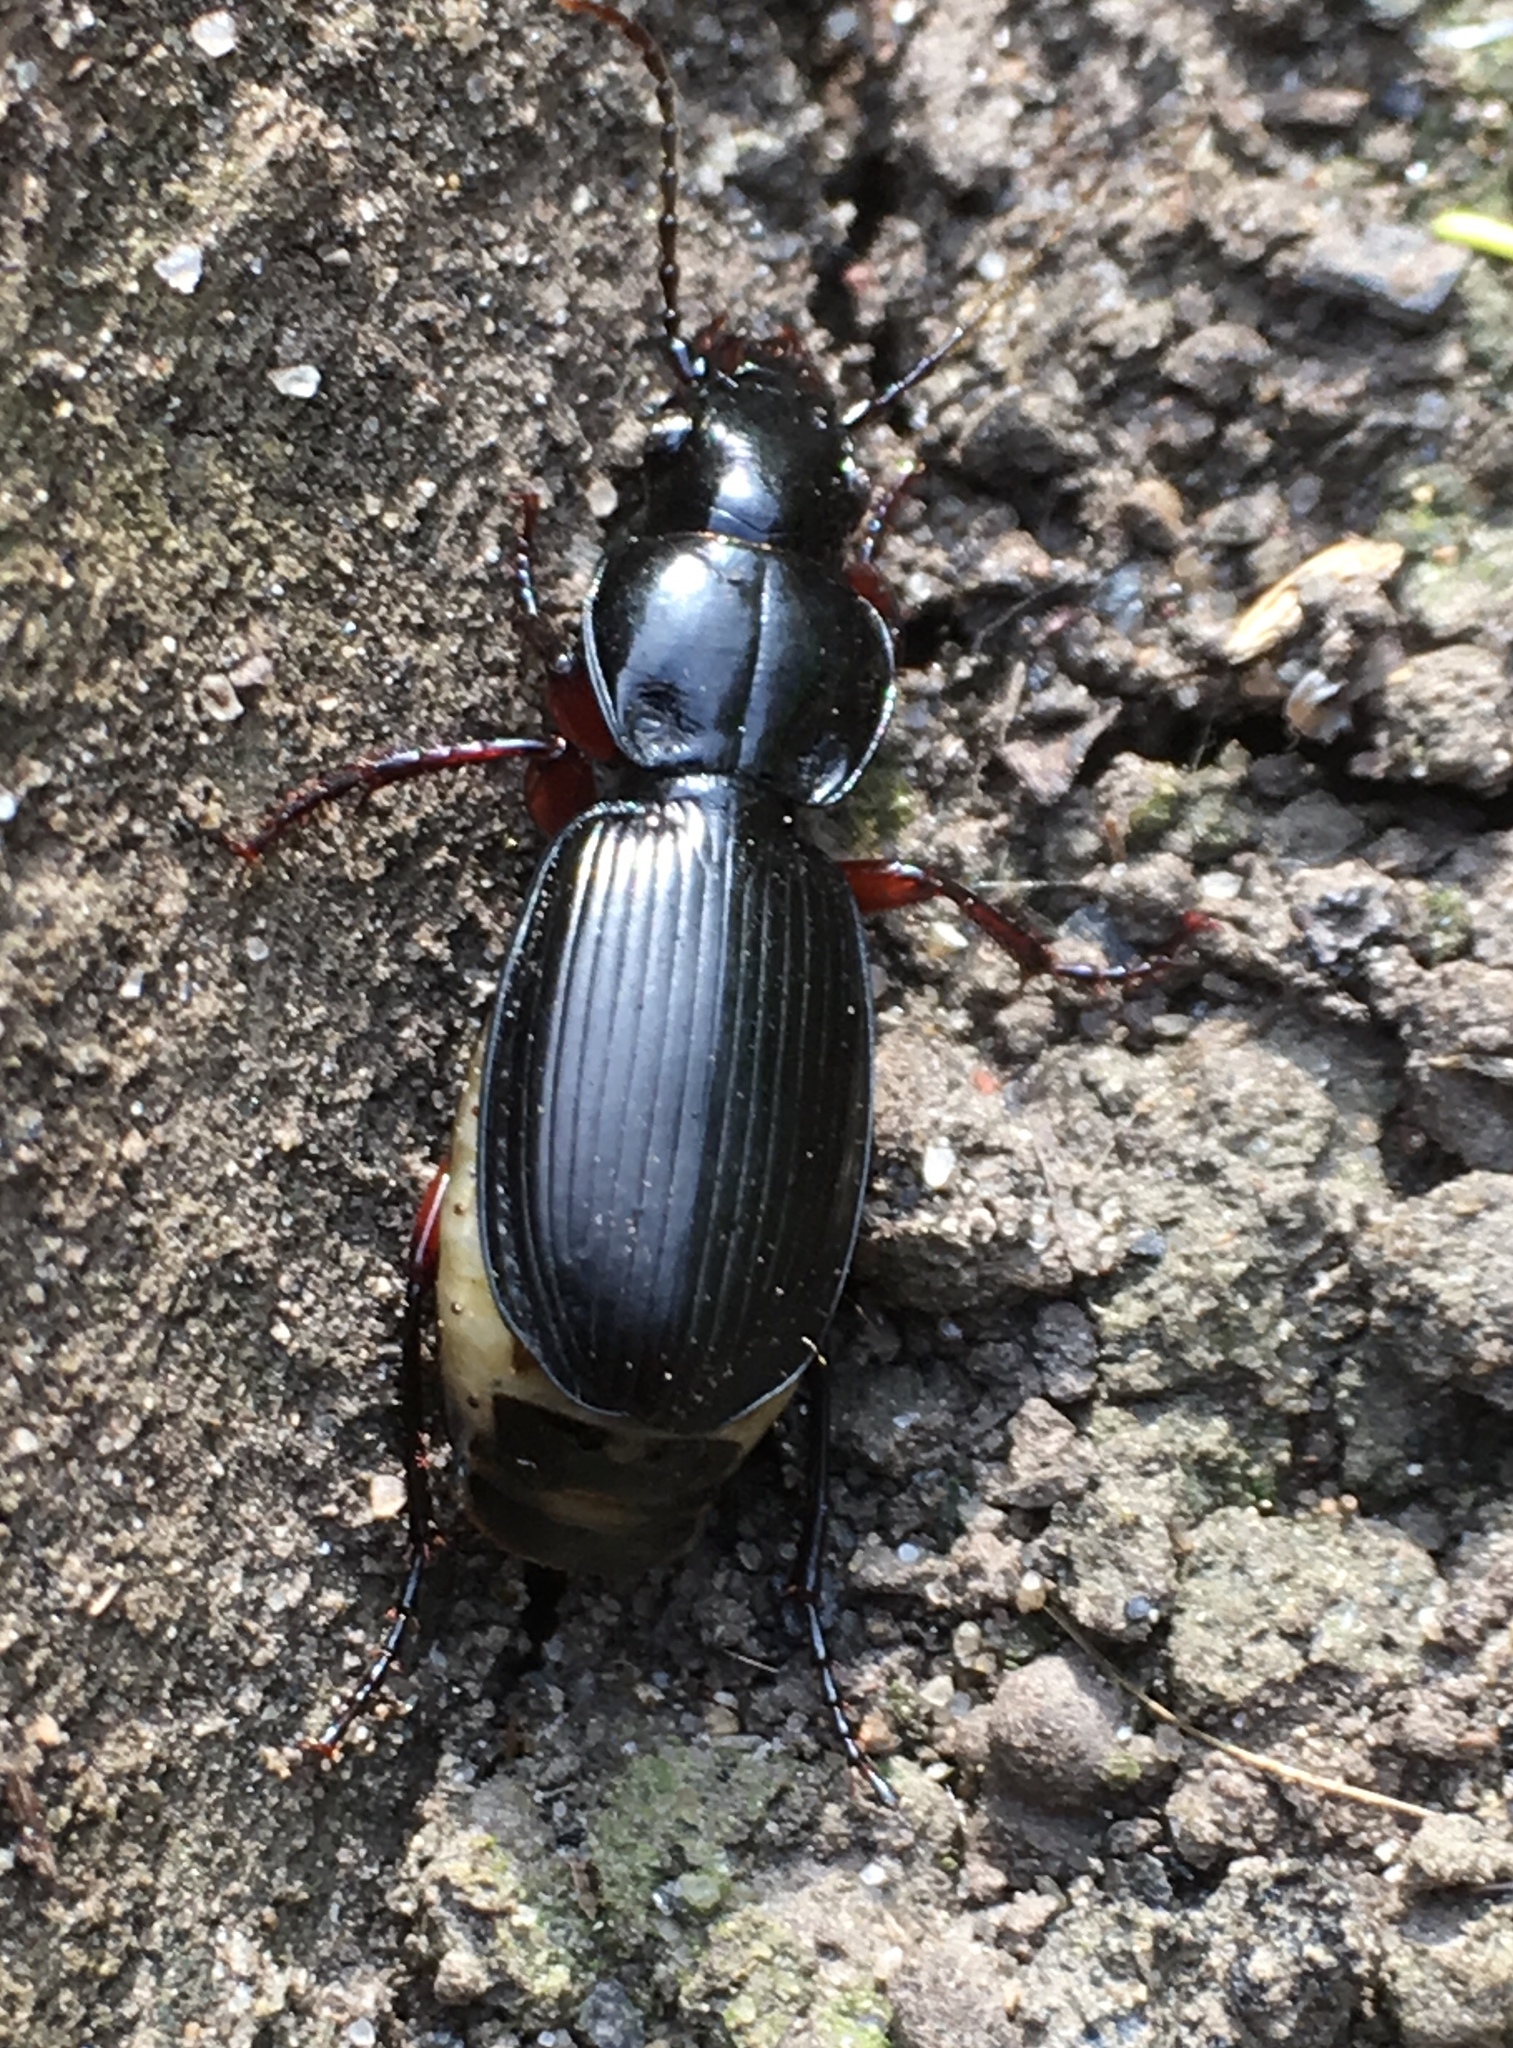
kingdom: Animalia
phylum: Arthropoda
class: Insecta
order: Coleoptera
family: Carabidae
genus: Pterostichus
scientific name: Pterostichus madidus
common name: Black clock
